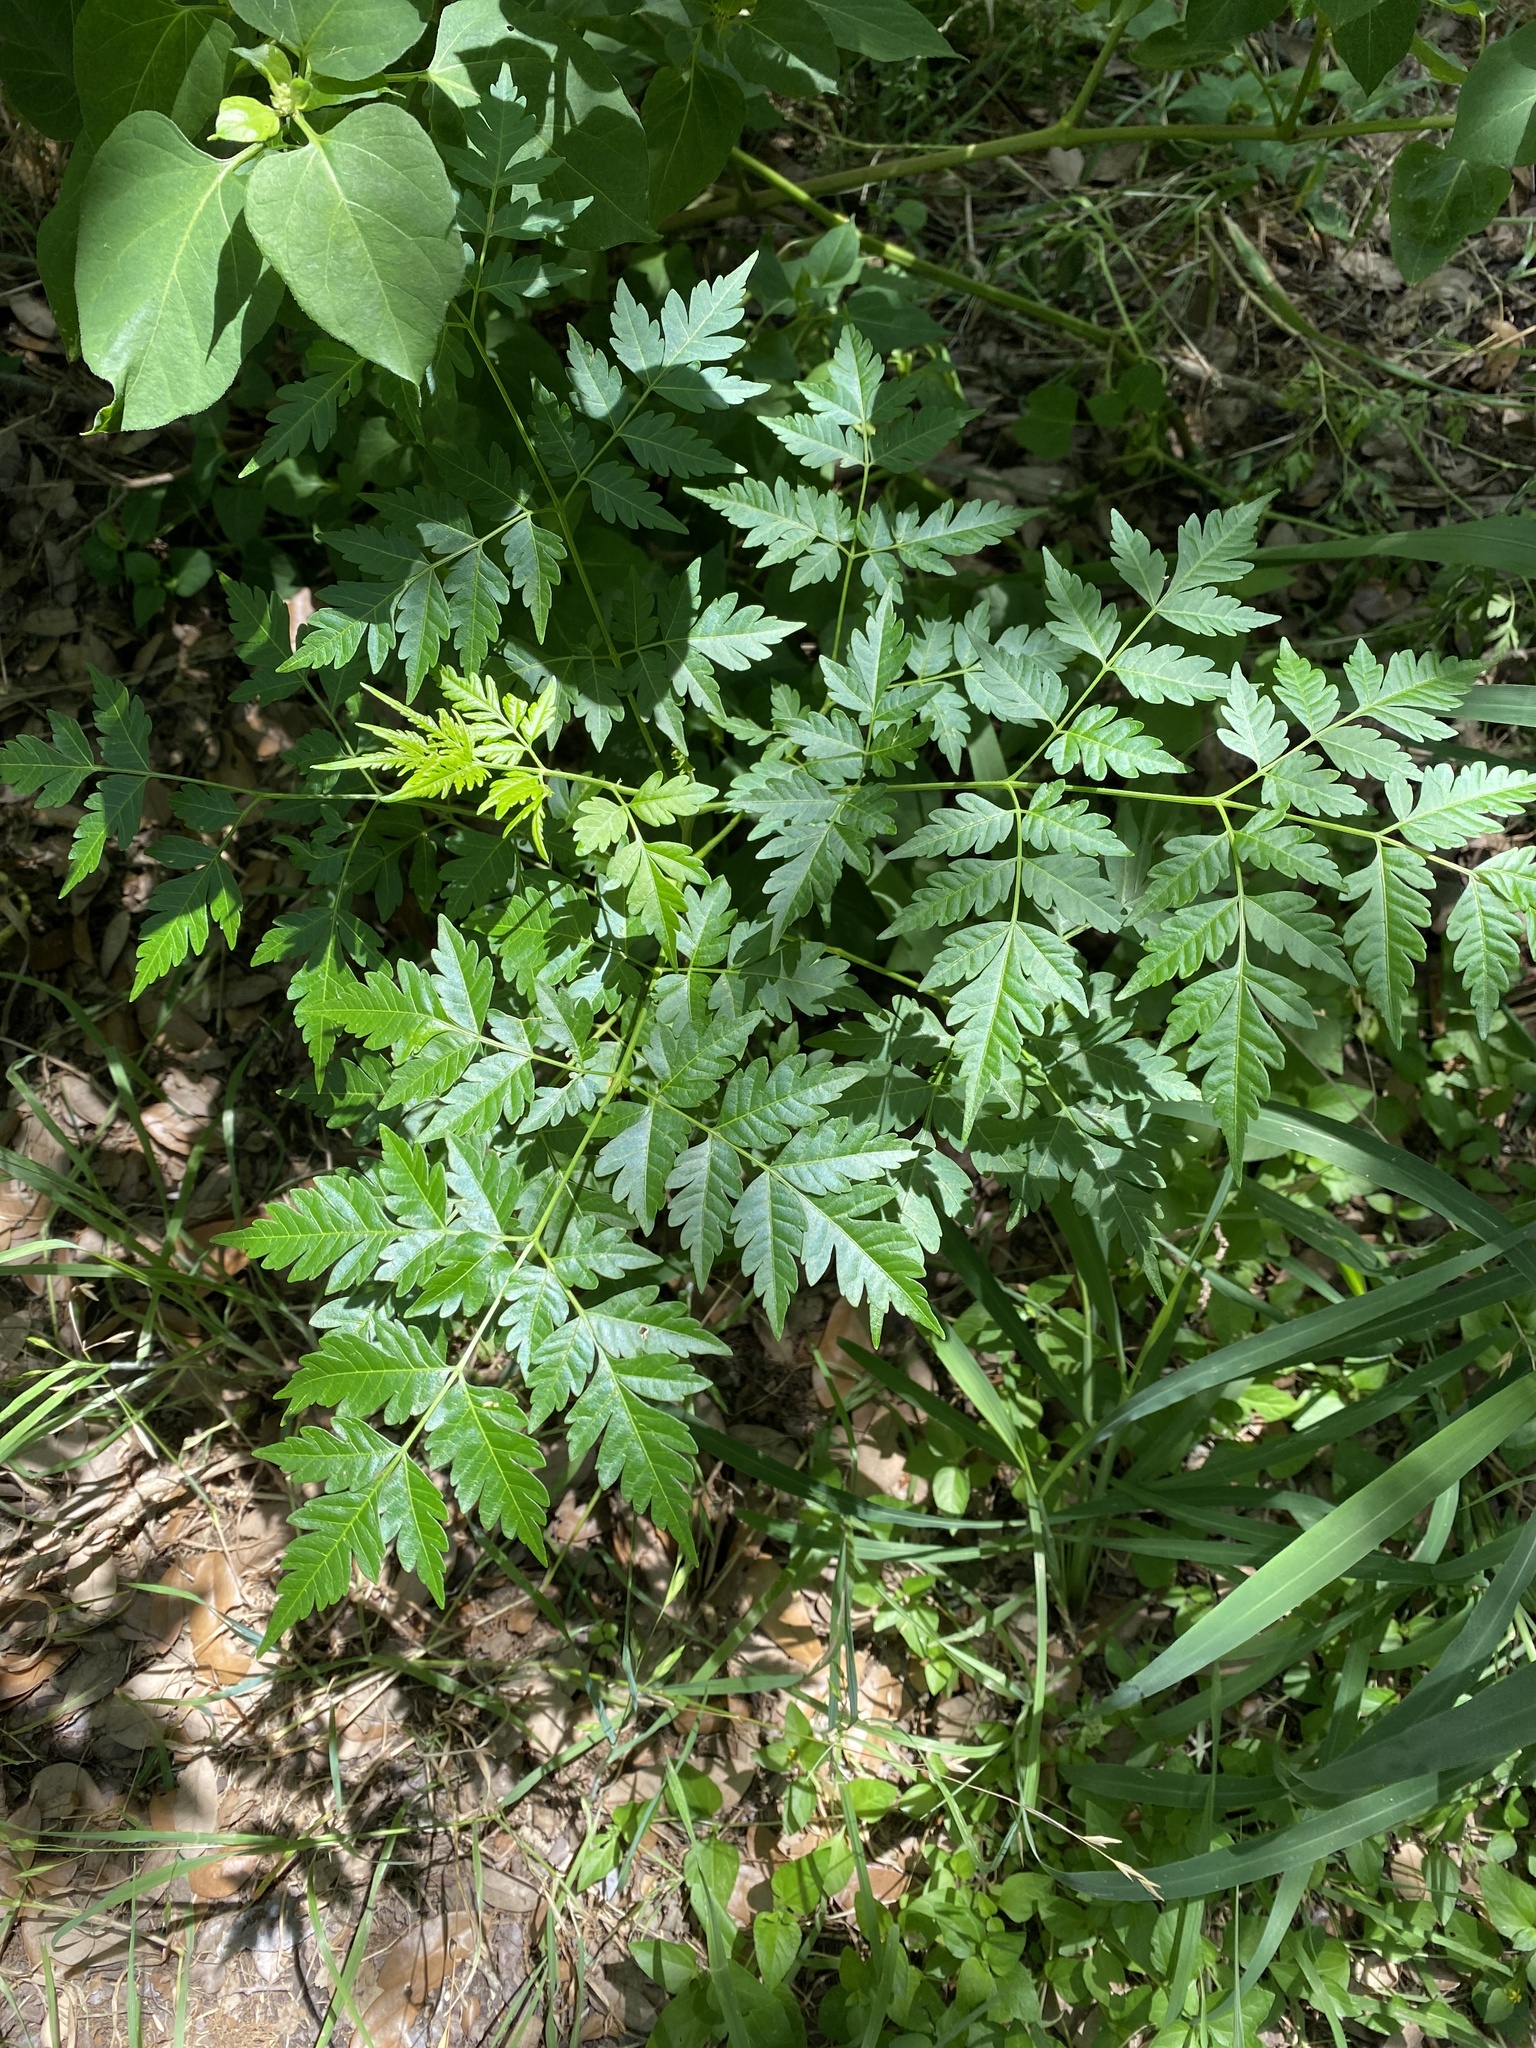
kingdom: Plantae
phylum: Tracheophyta
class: Magnoliopsida
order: Sapindales
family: Meliaceae
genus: Melia
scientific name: Melia azedarach
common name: Chinaberrytree
